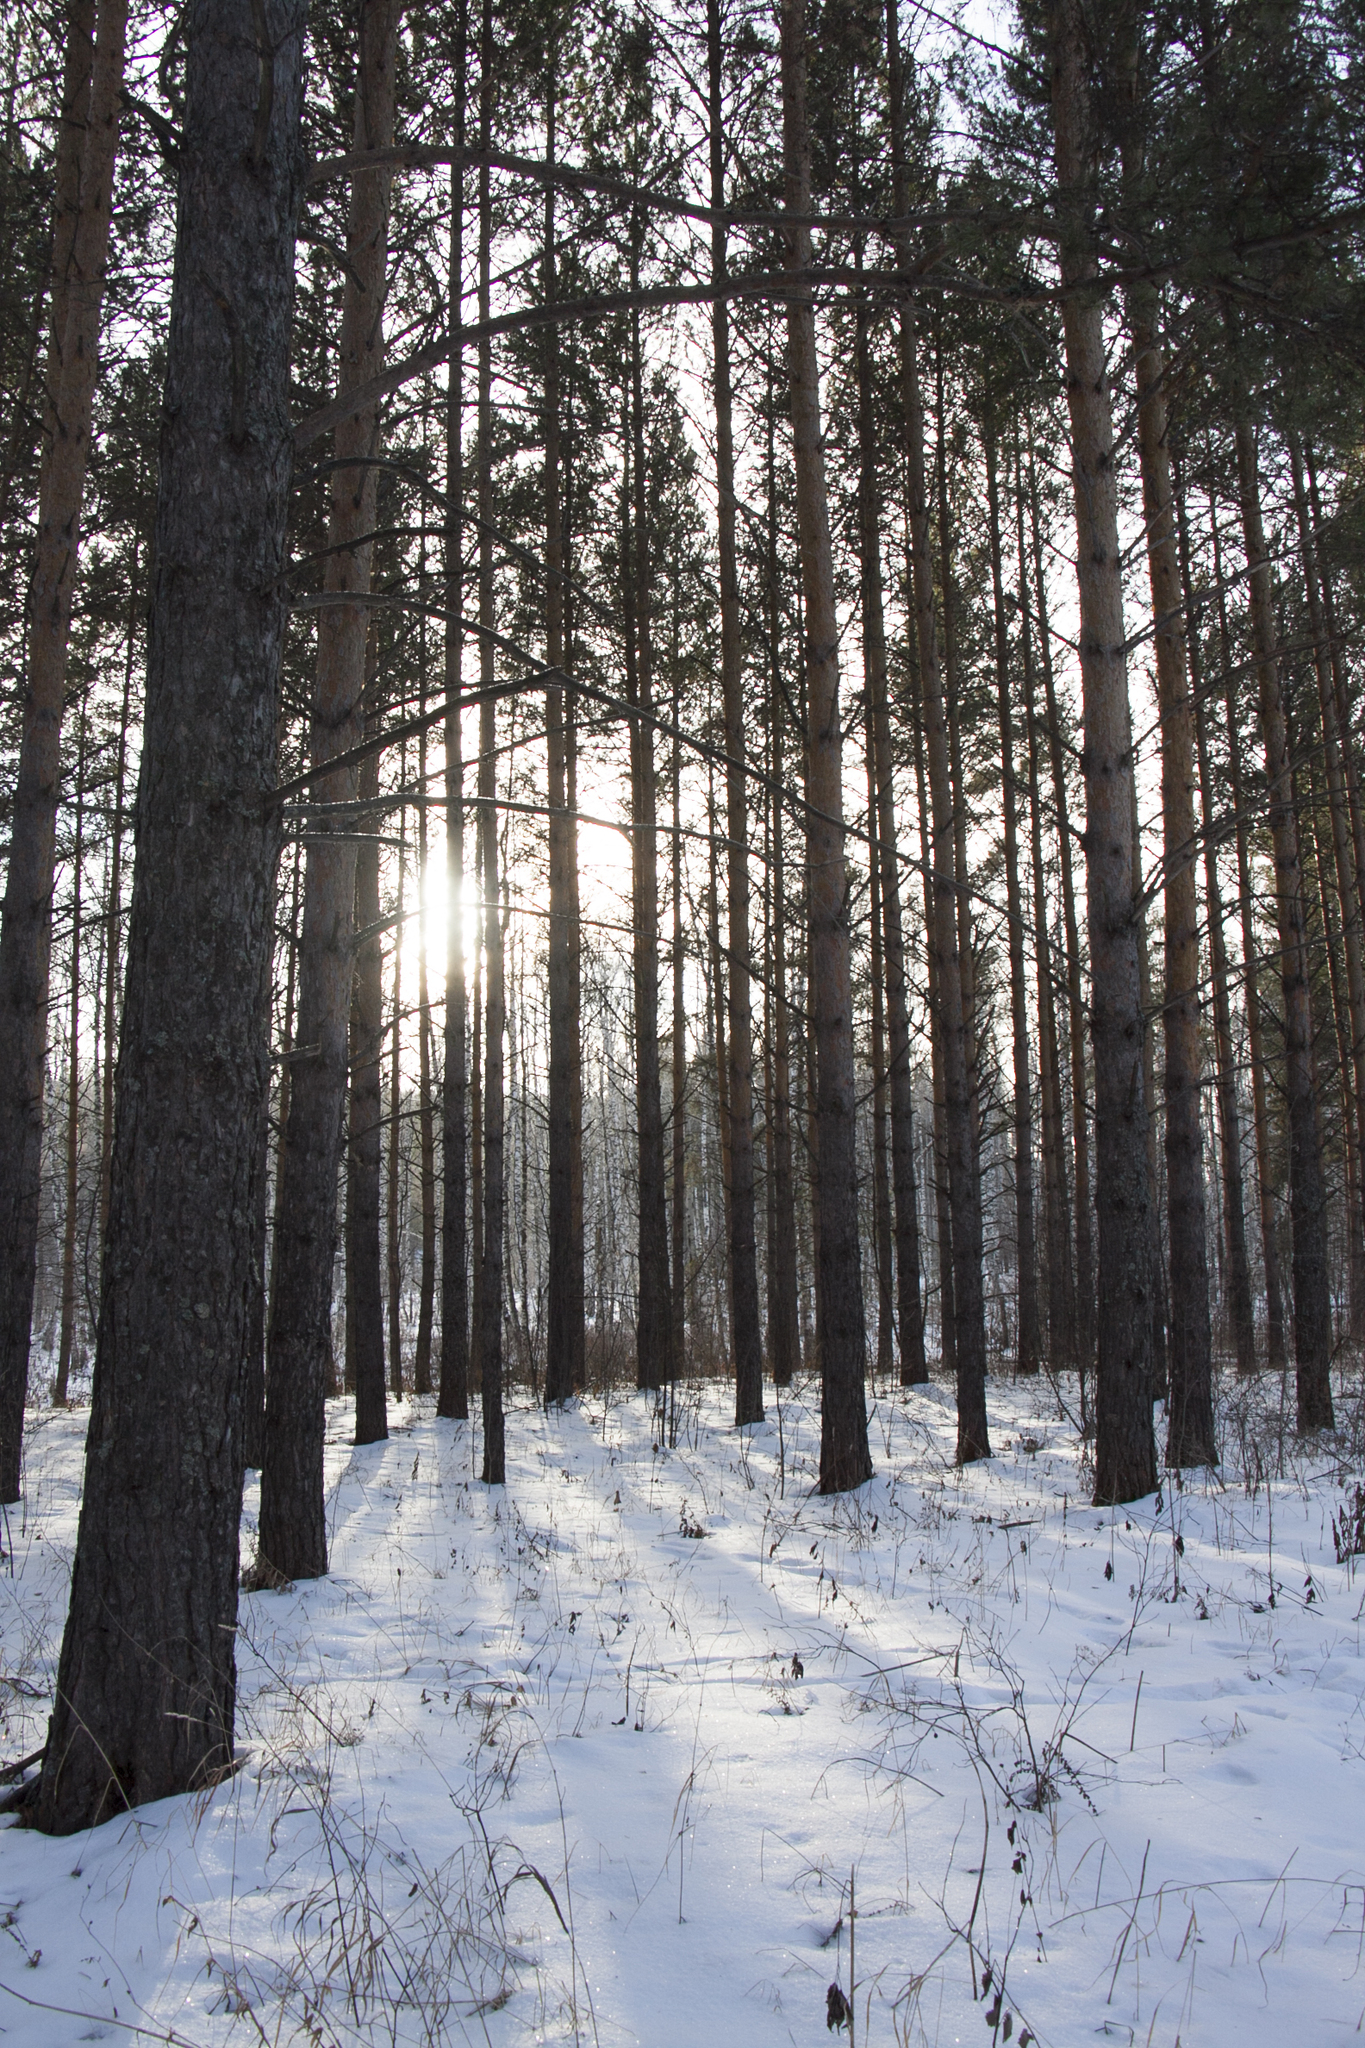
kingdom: Plantae
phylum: Tracheophyta
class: Pinopsida
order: Pinales
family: Pinaceae
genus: Pinus
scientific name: Pinus sylvestris
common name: Scots pine
